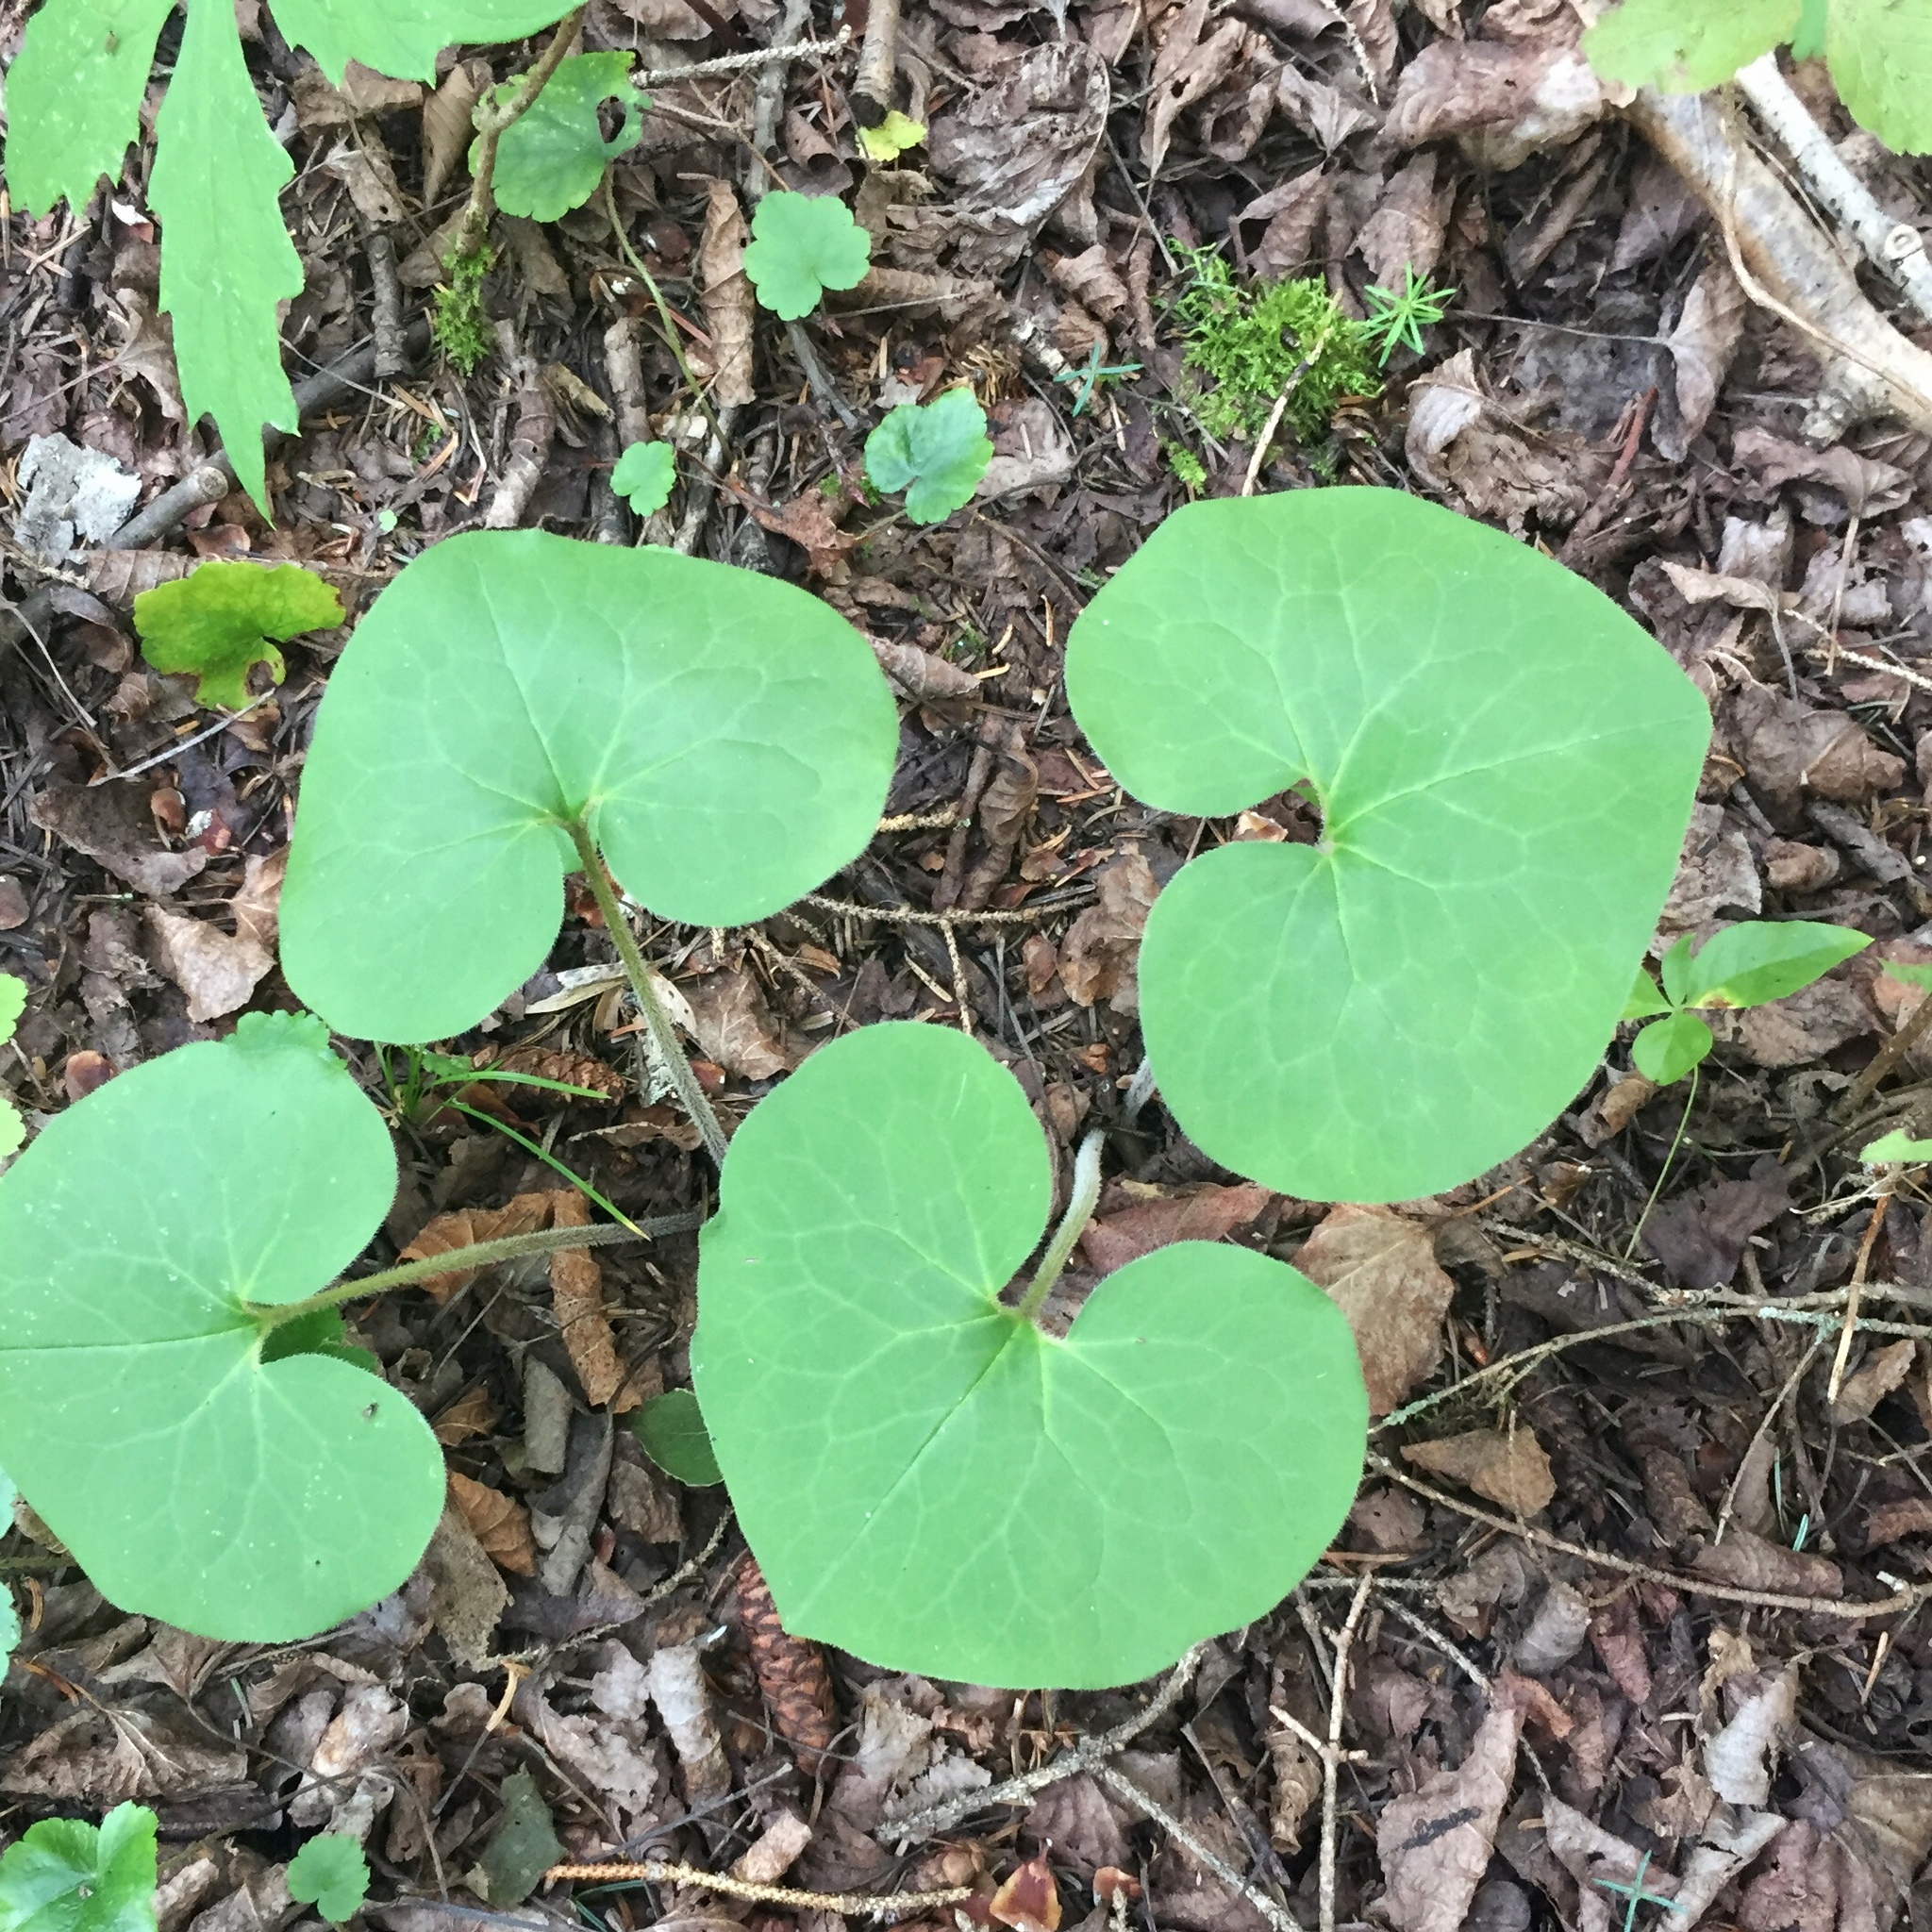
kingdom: Plantae
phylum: Tracheophyta
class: Magnoliopsida
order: Piperales
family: Aristolochiaceae
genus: Asarum
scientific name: Asarum canadense
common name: Wild ginger
